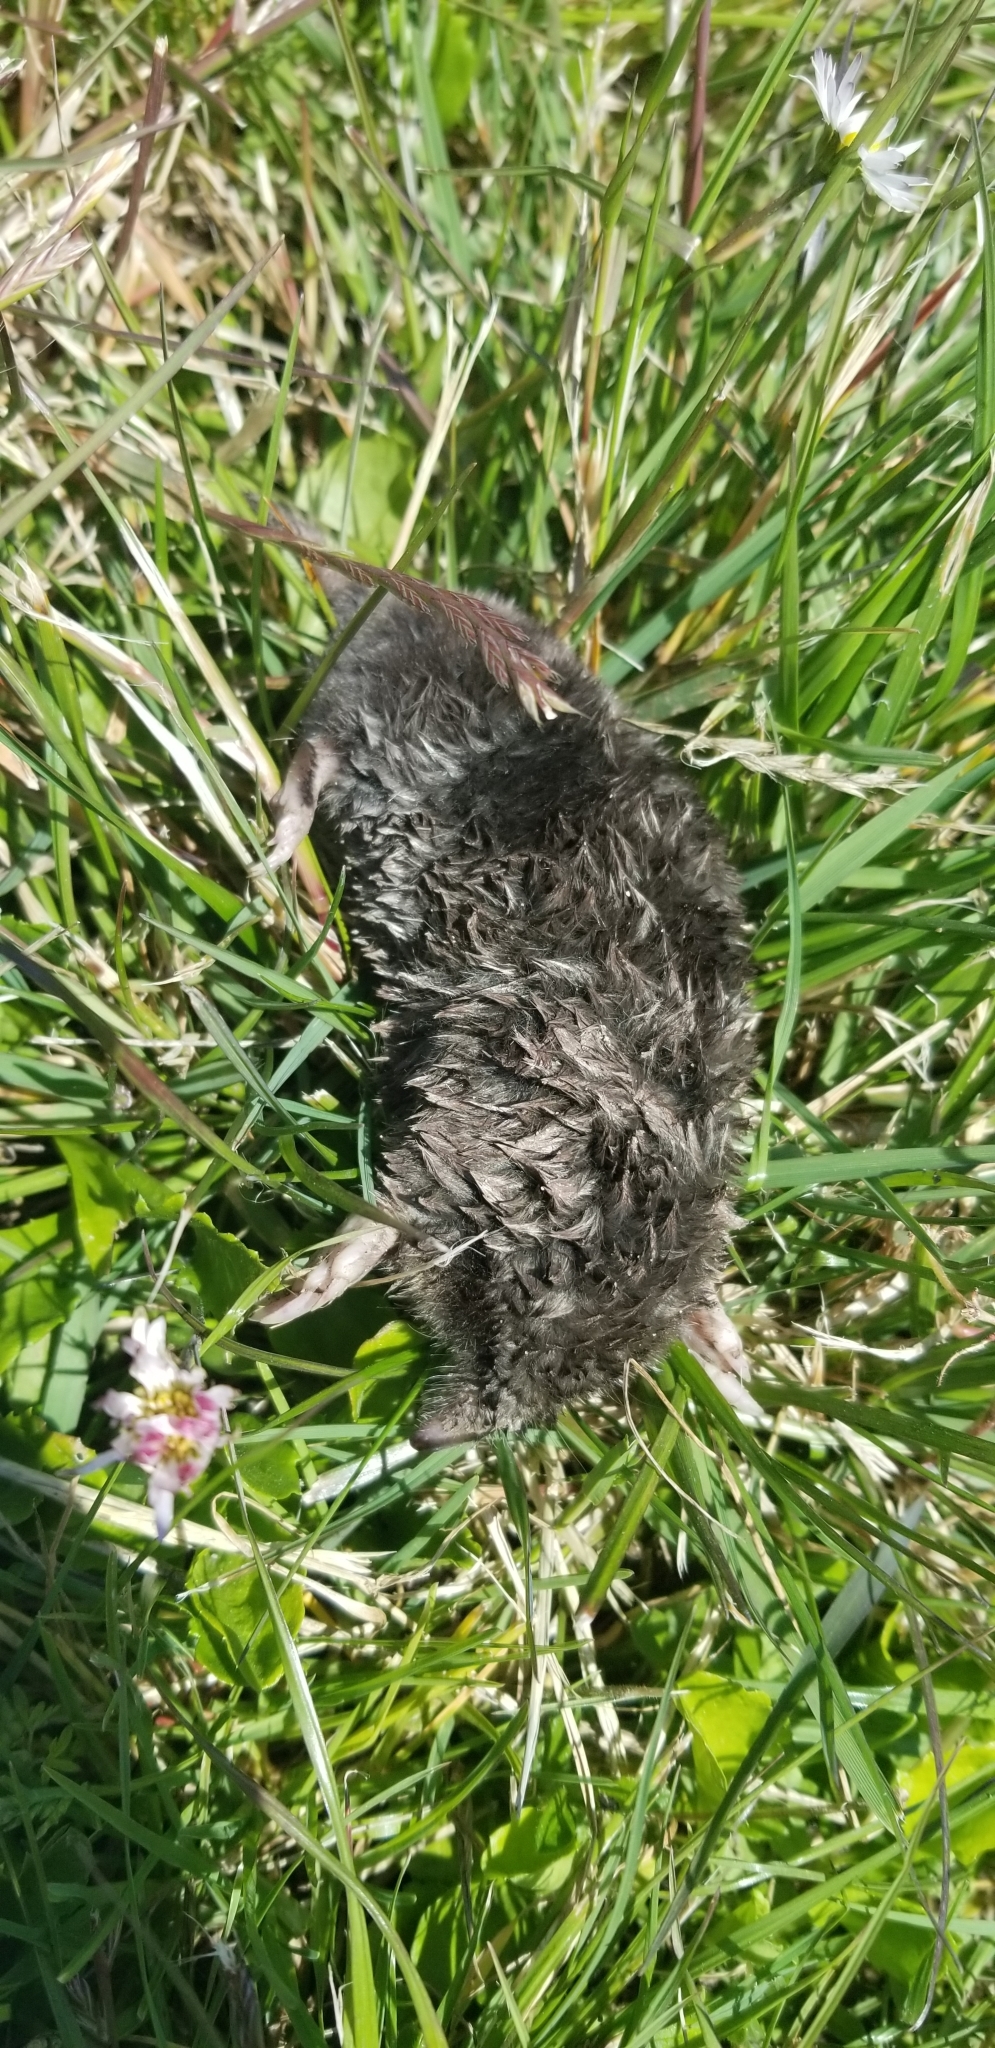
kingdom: Animalia
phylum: Chordata
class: Mammalia
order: Soricomorpha
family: Talpidae
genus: Scapanus
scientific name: Scapanus latimanus
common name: Broad-footed mole
